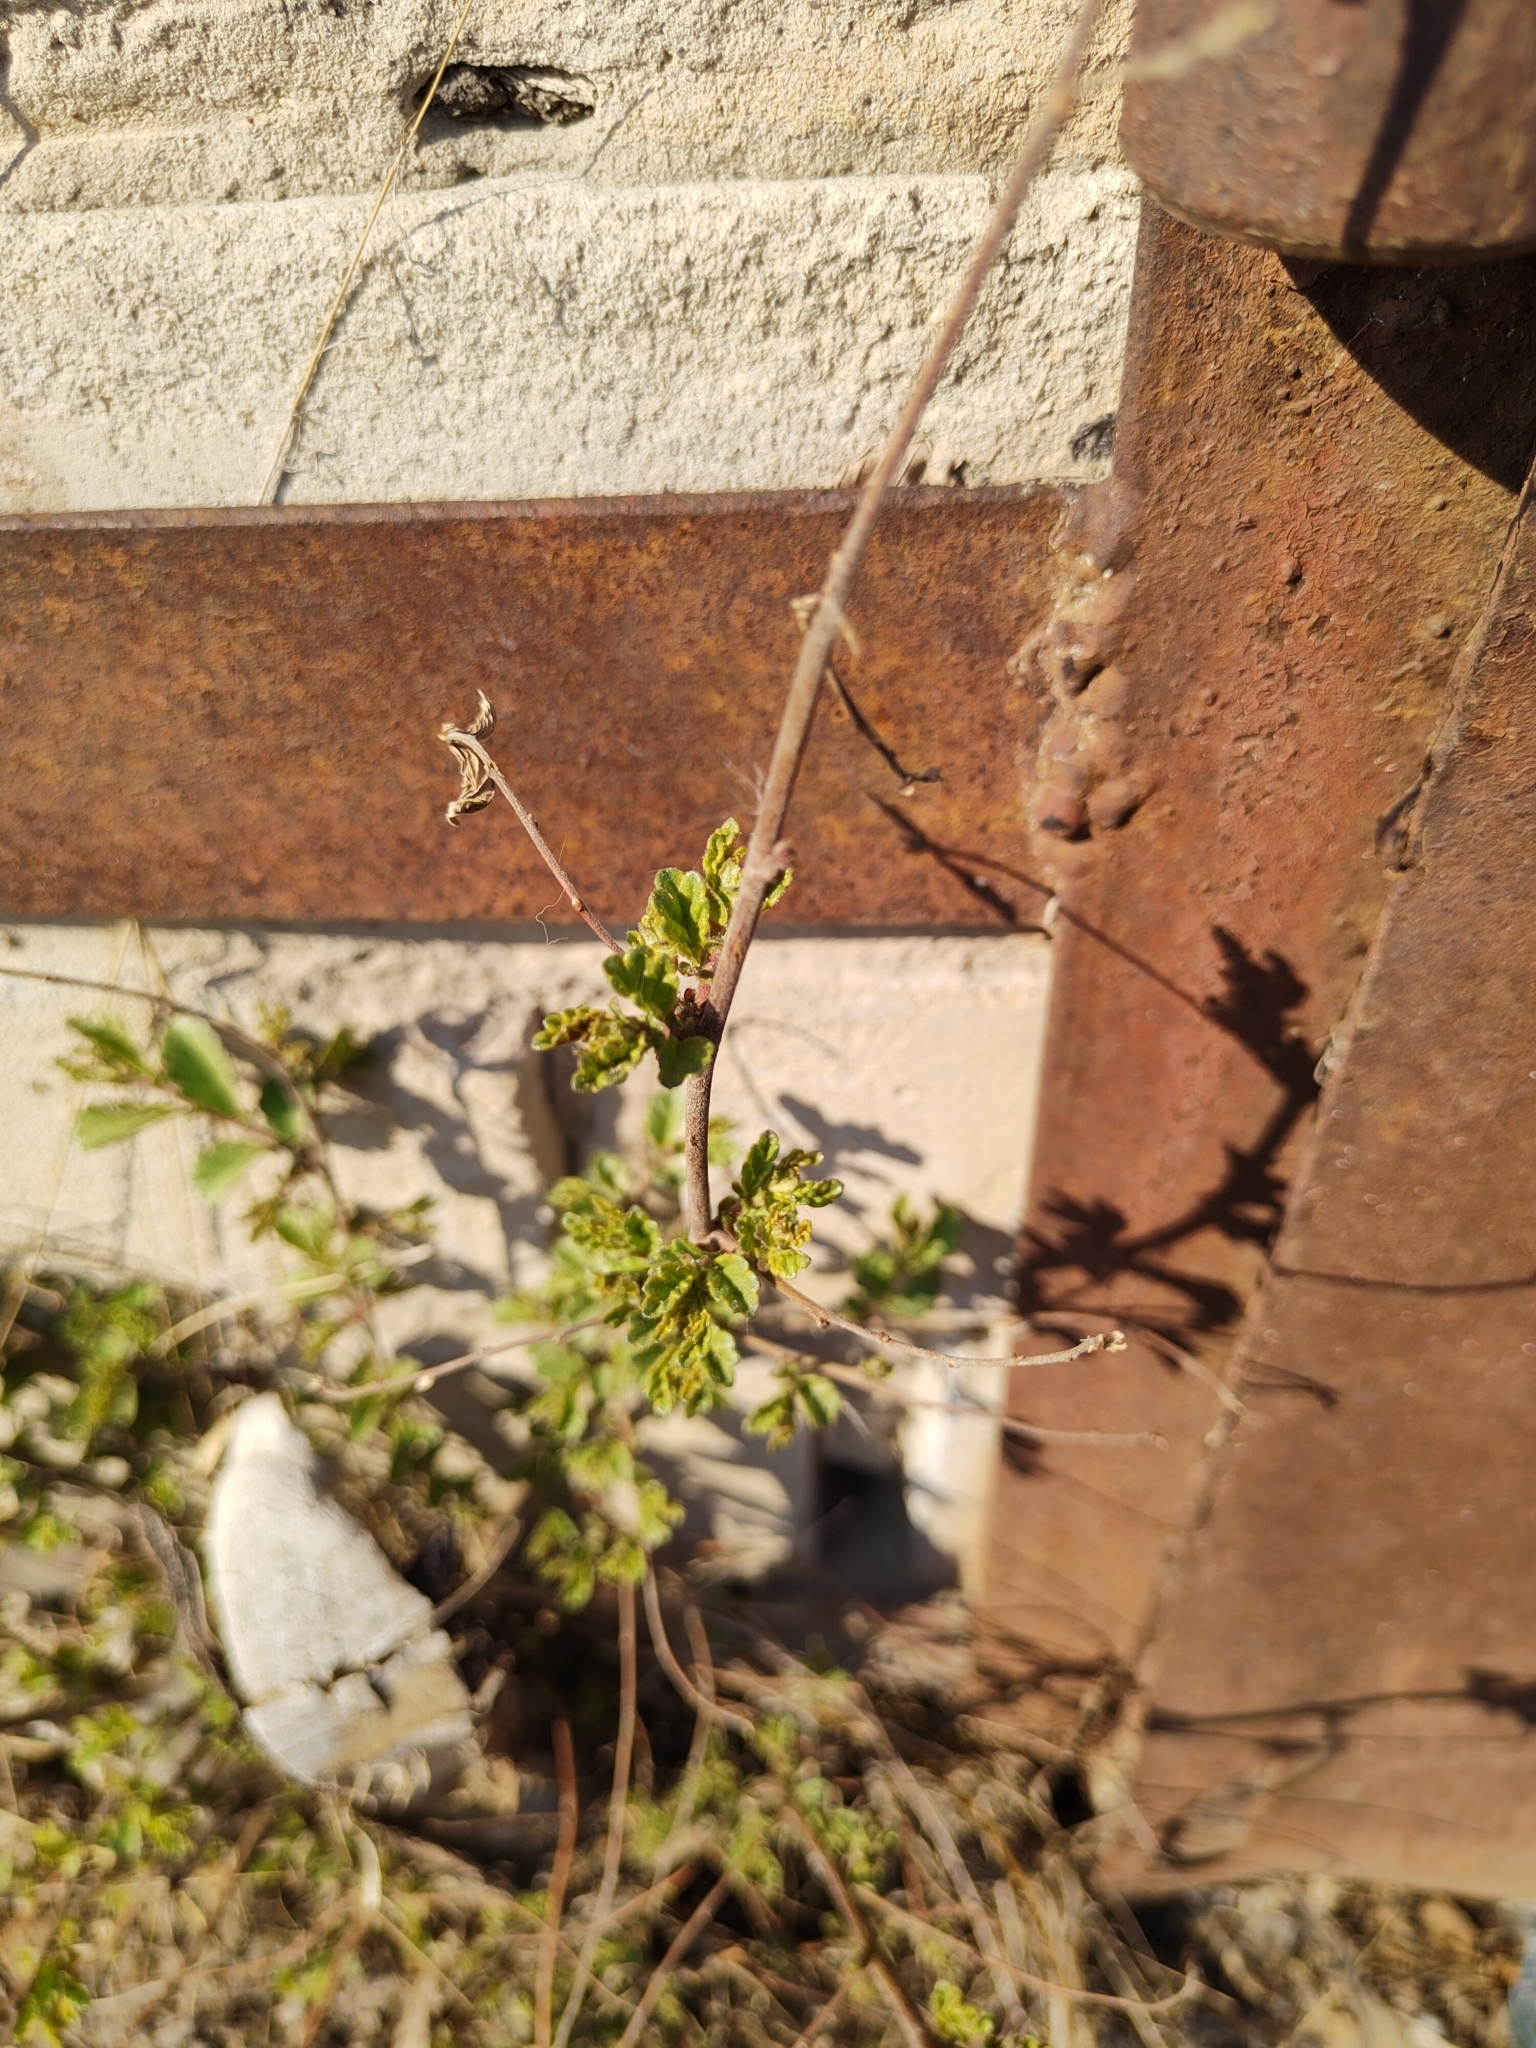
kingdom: Plantae
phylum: Tracheophyta
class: Magnoliopsida
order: Rosales
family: Ulmaceae
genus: Ulmus
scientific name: Ulmus pumila
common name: Siberian elm
